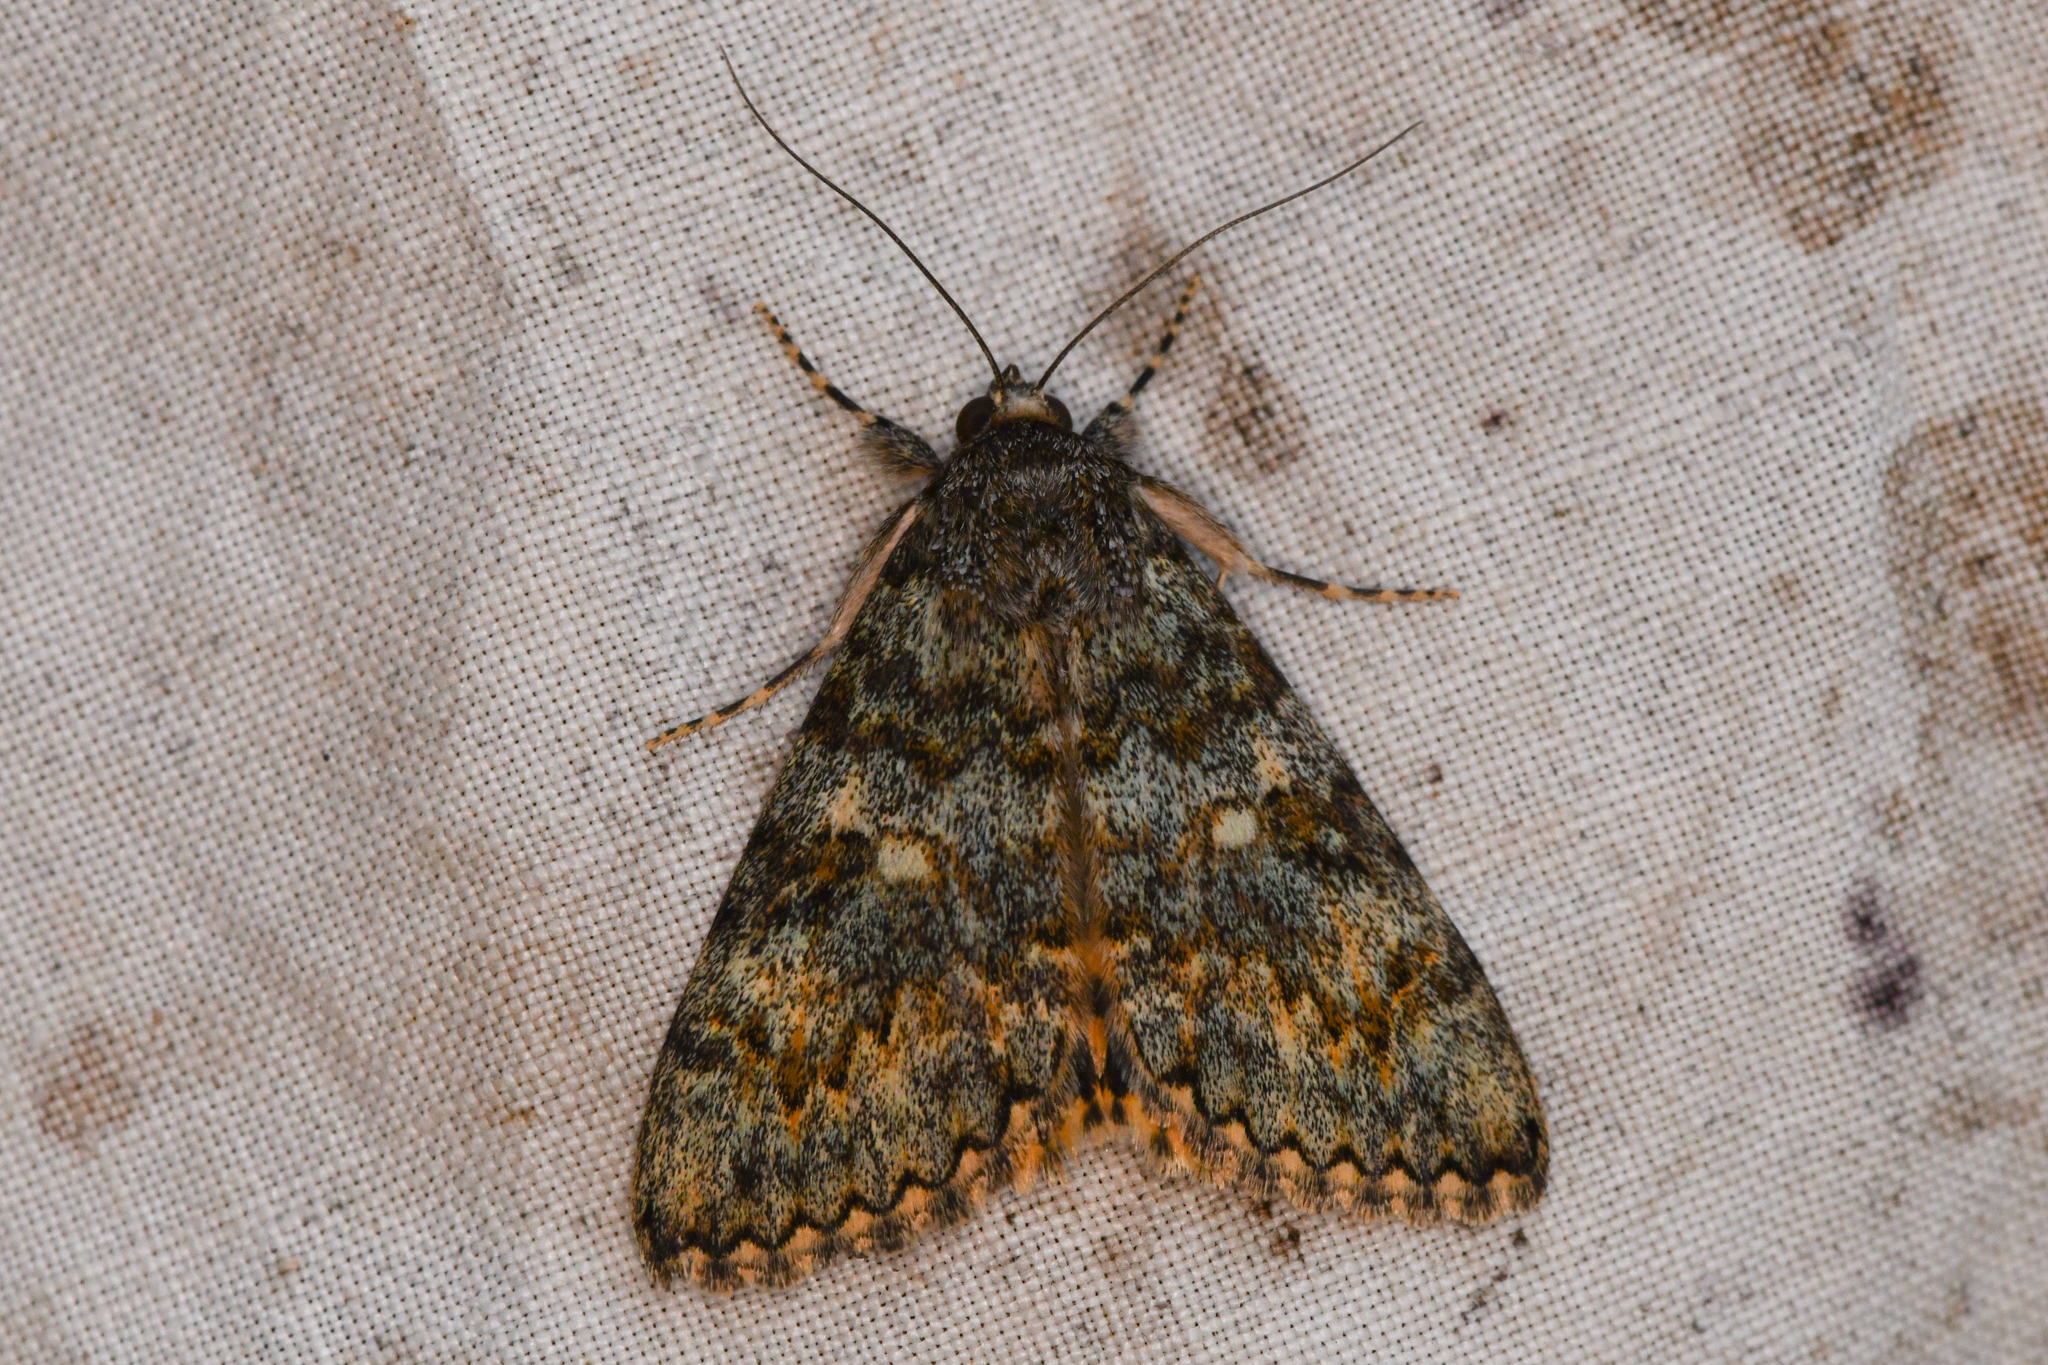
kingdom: Animalia
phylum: Arthropoda
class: Insecta
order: Lepidoptera
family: Erebidae
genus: Catocala
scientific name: Catocala andromache
